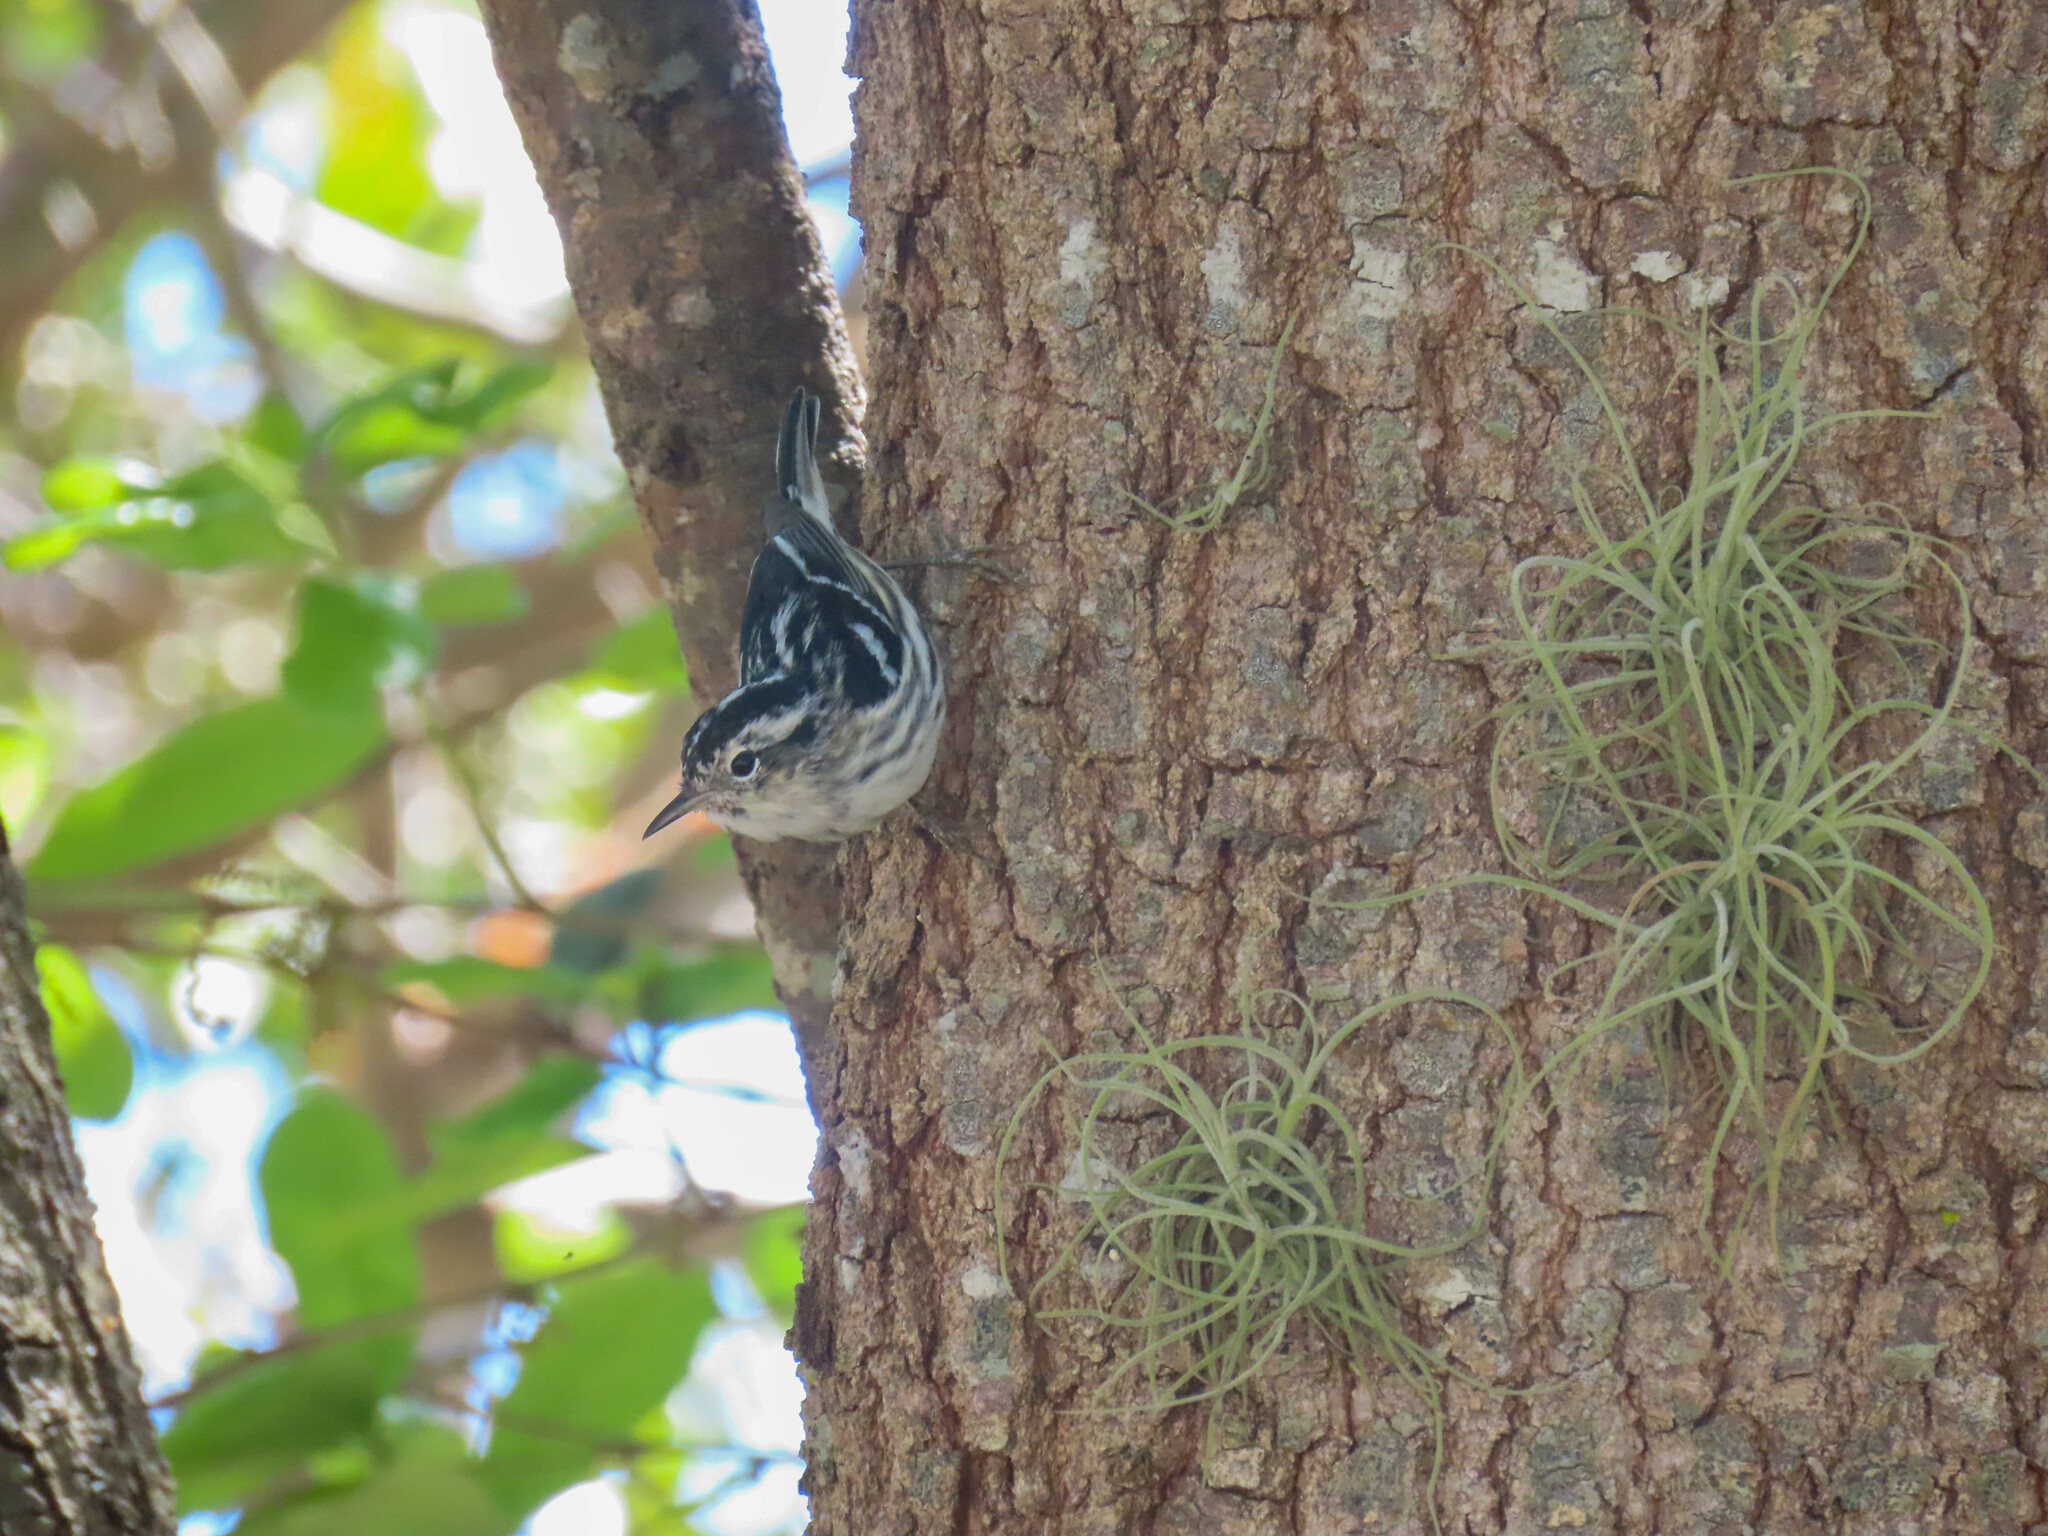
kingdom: Animalia
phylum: Chordata
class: Aves
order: Passeriformes
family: Parulidae
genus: Mniotilta
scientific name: Mniotilta varia
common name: Black-and-white warbler
